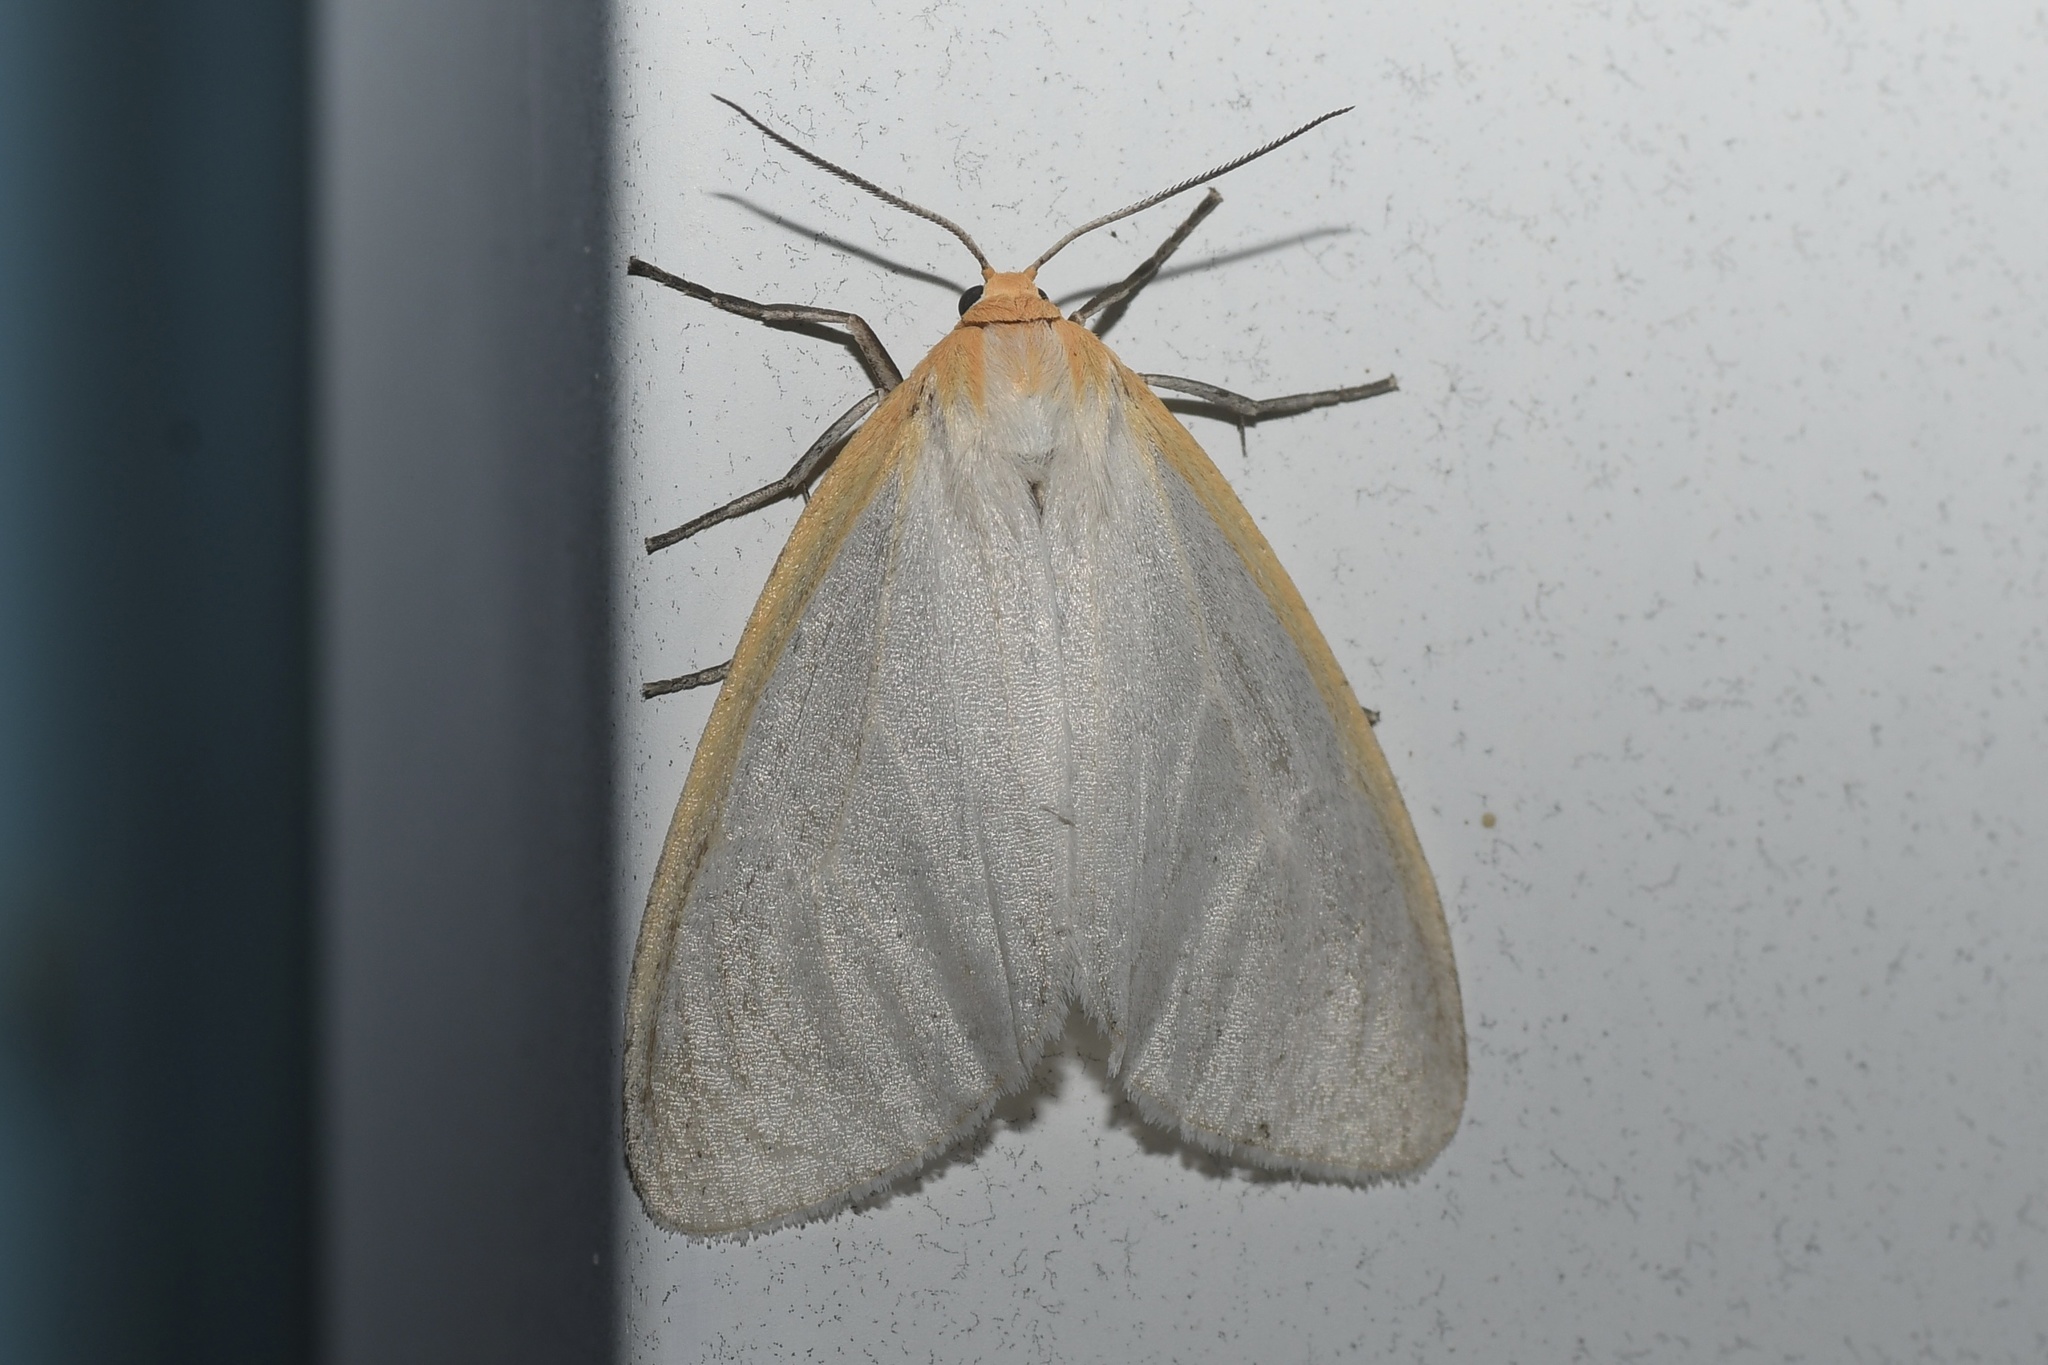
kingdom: Animalia
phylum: Arthropoda
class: Insecta
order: Lepidoptera
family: Erebidae
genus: Cycnia
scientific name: Cycnia tenera
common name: Delicate cycnia moth
